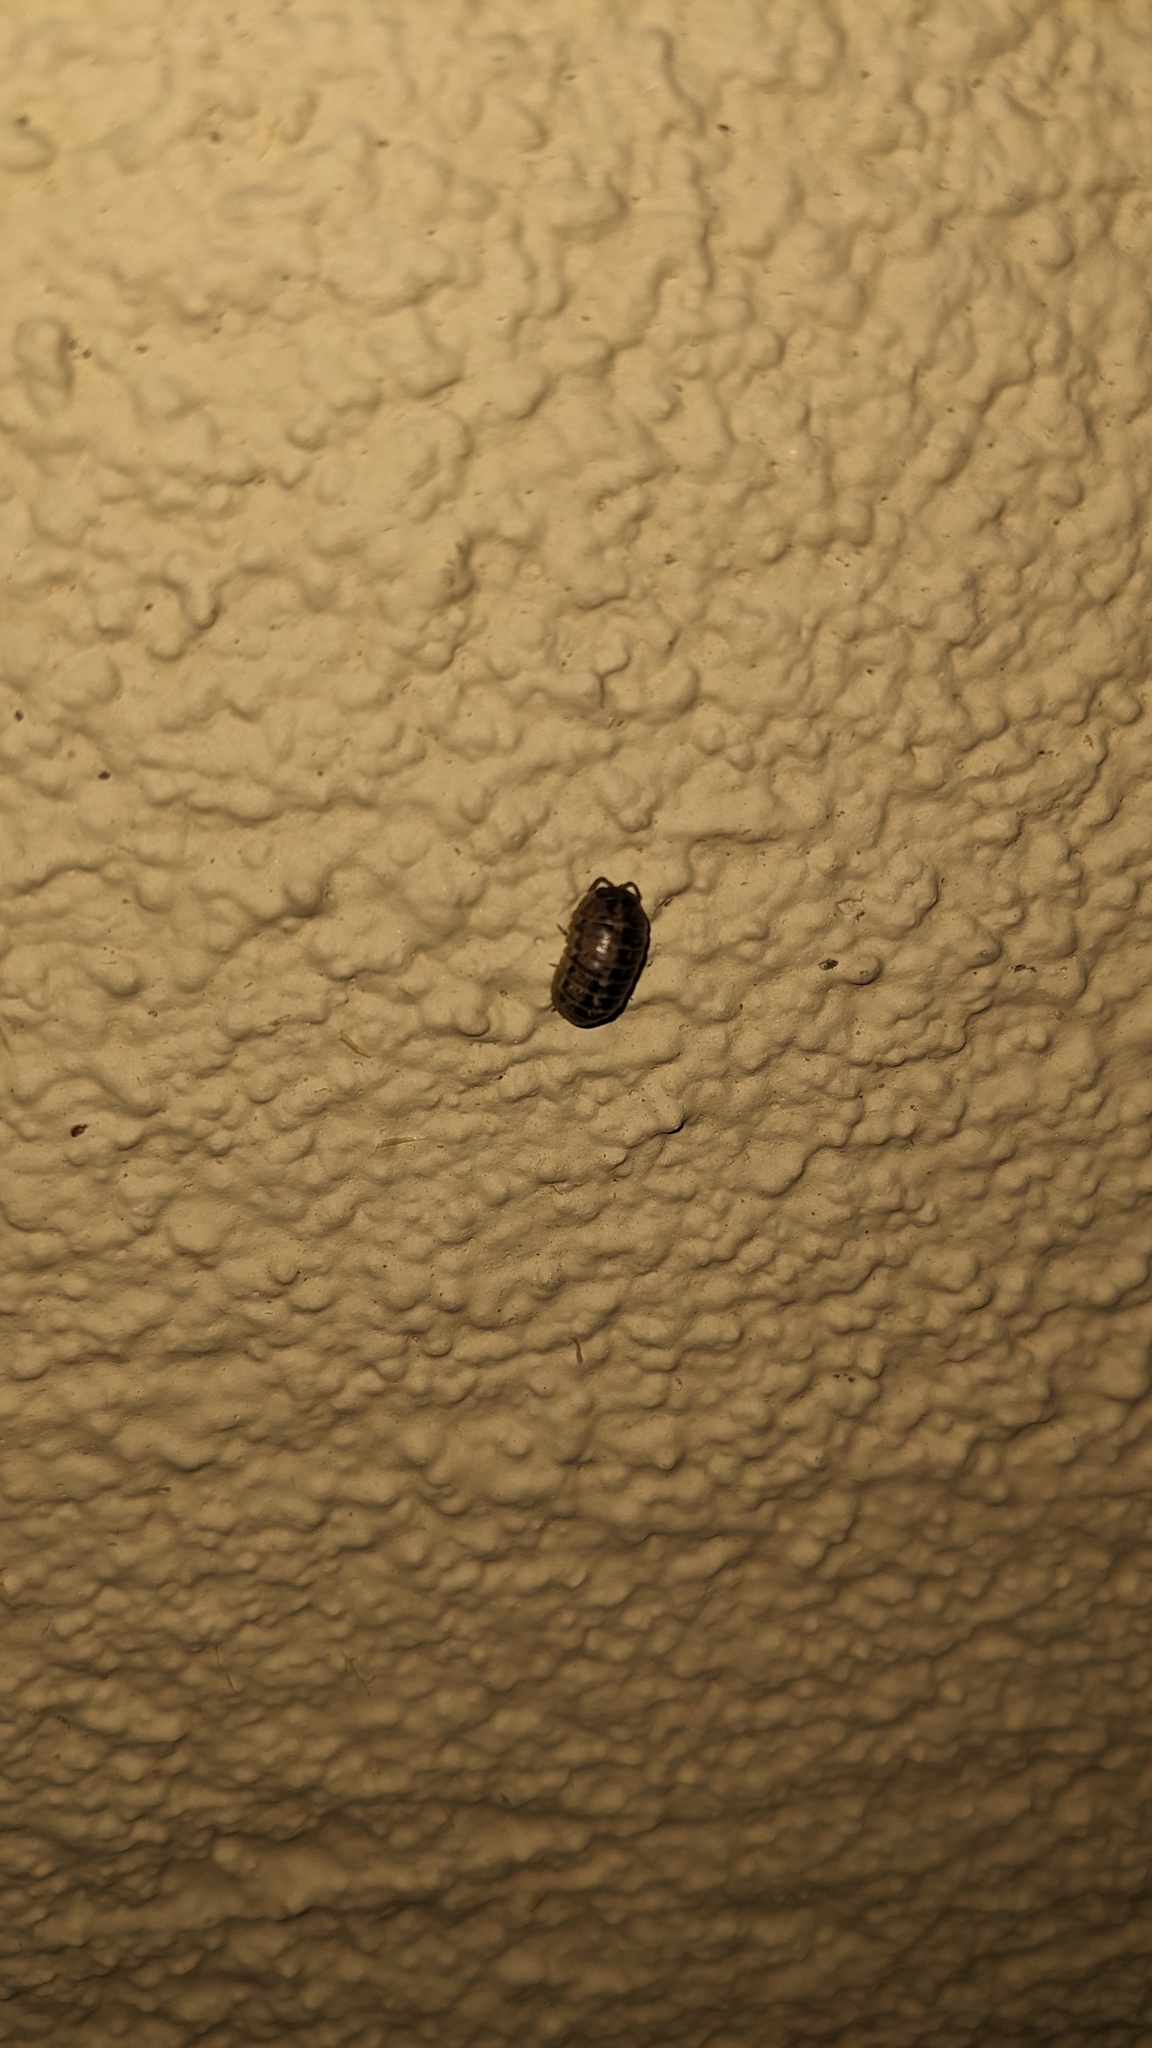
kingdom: Animalia
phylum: Arthropoda
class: Malacostraca
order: Isopoda
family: Armadillidiidae
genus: Armadillidium
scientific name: Armadillidium vulgare
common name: Common pill woodlouse
